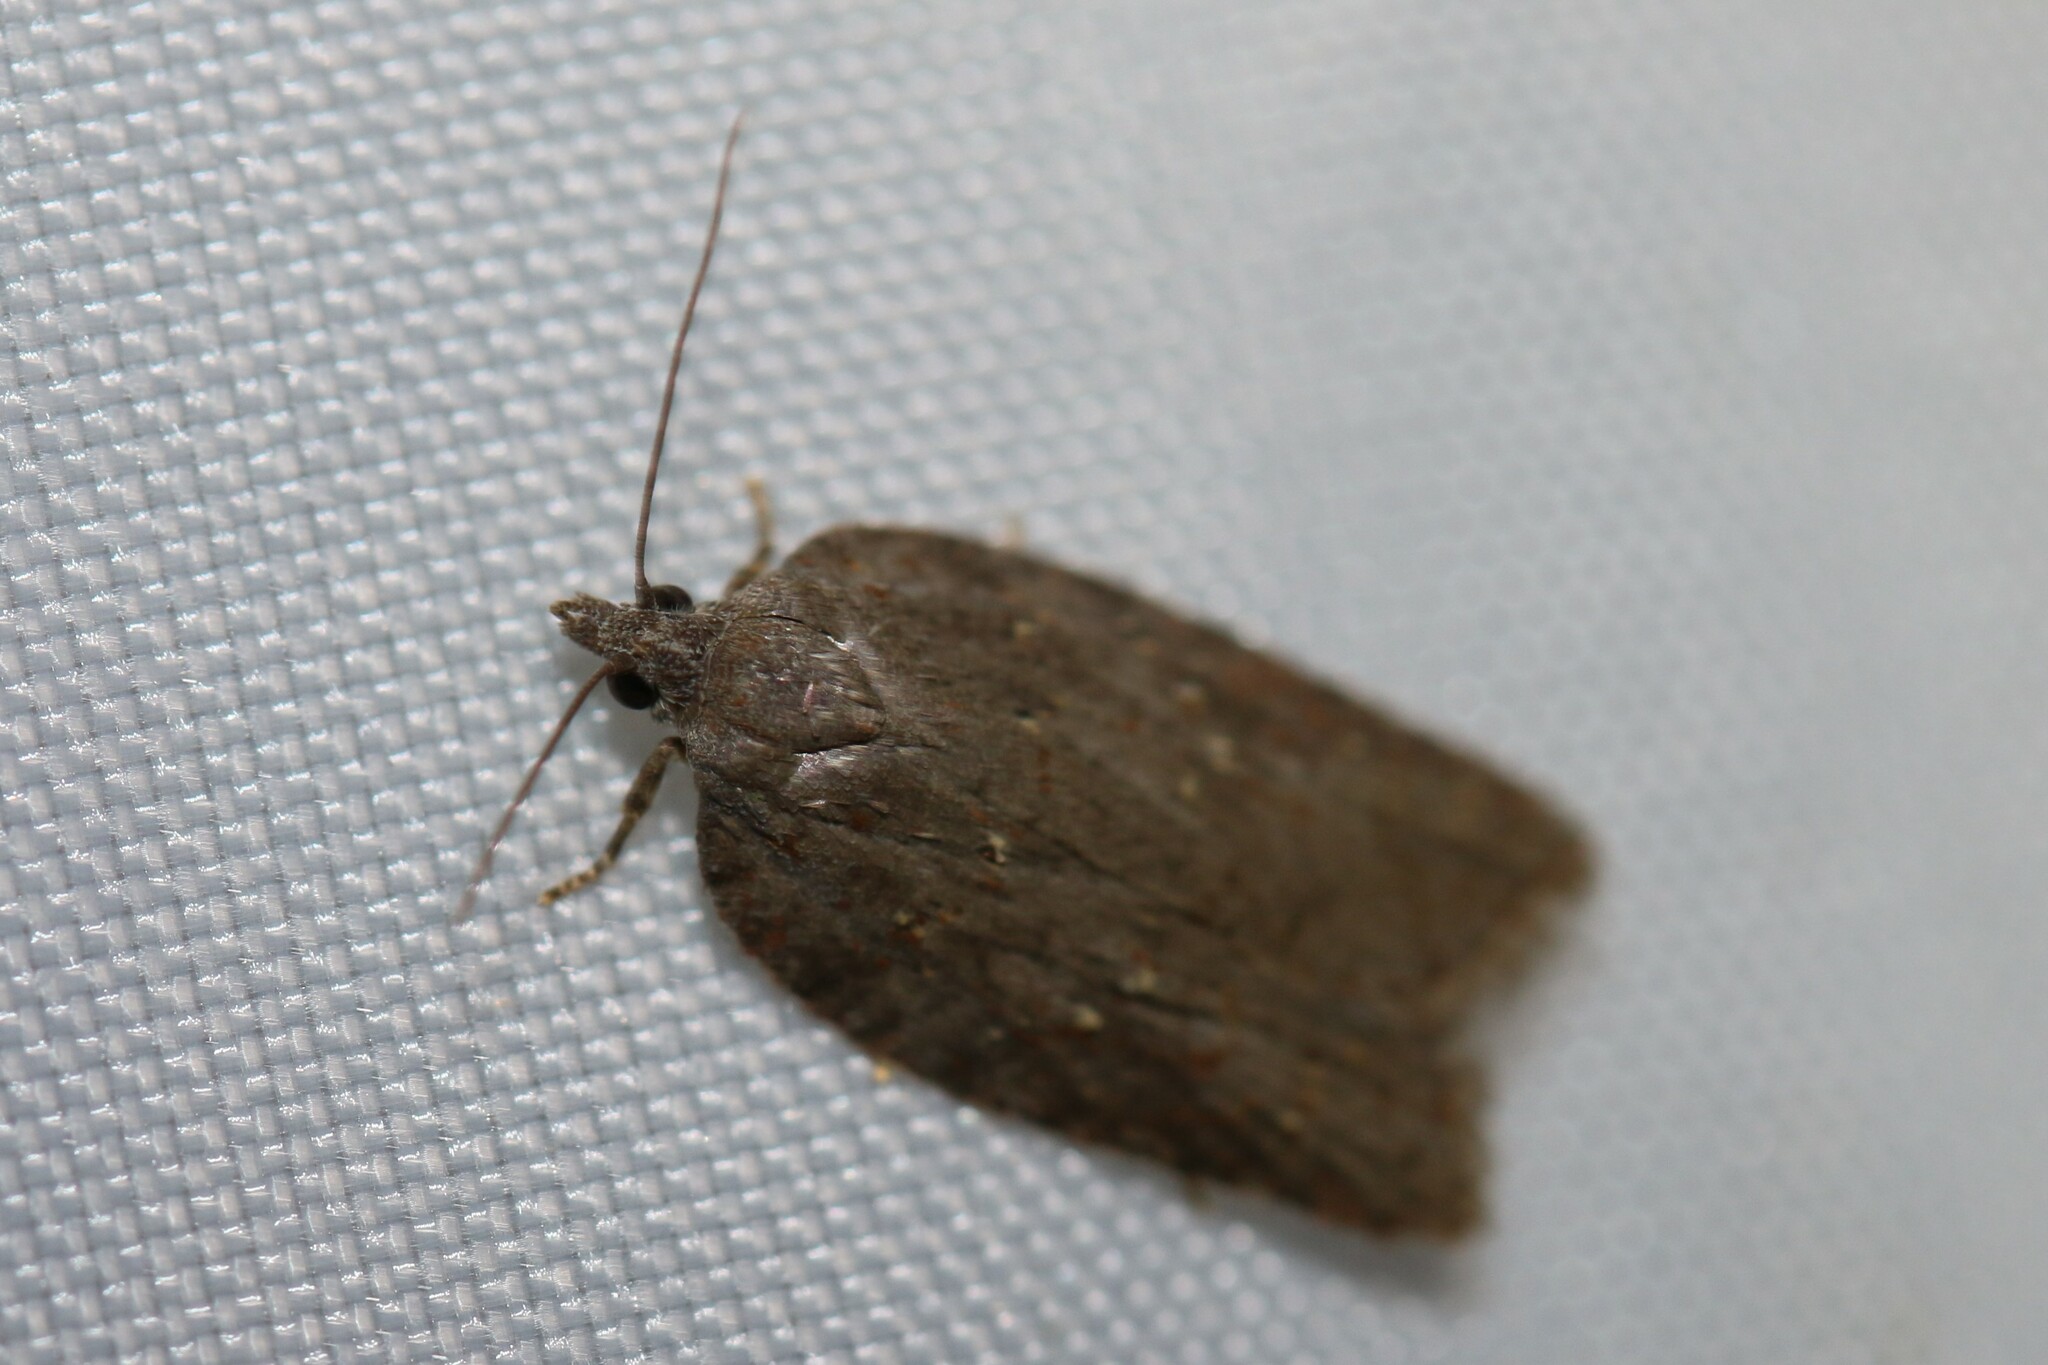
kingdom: Animalia
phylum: Arthropoda
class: Insecta
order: Lepidoptera
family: Tortricidae
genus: Acleris
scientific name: Acleris sparsana
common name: Ashy button
